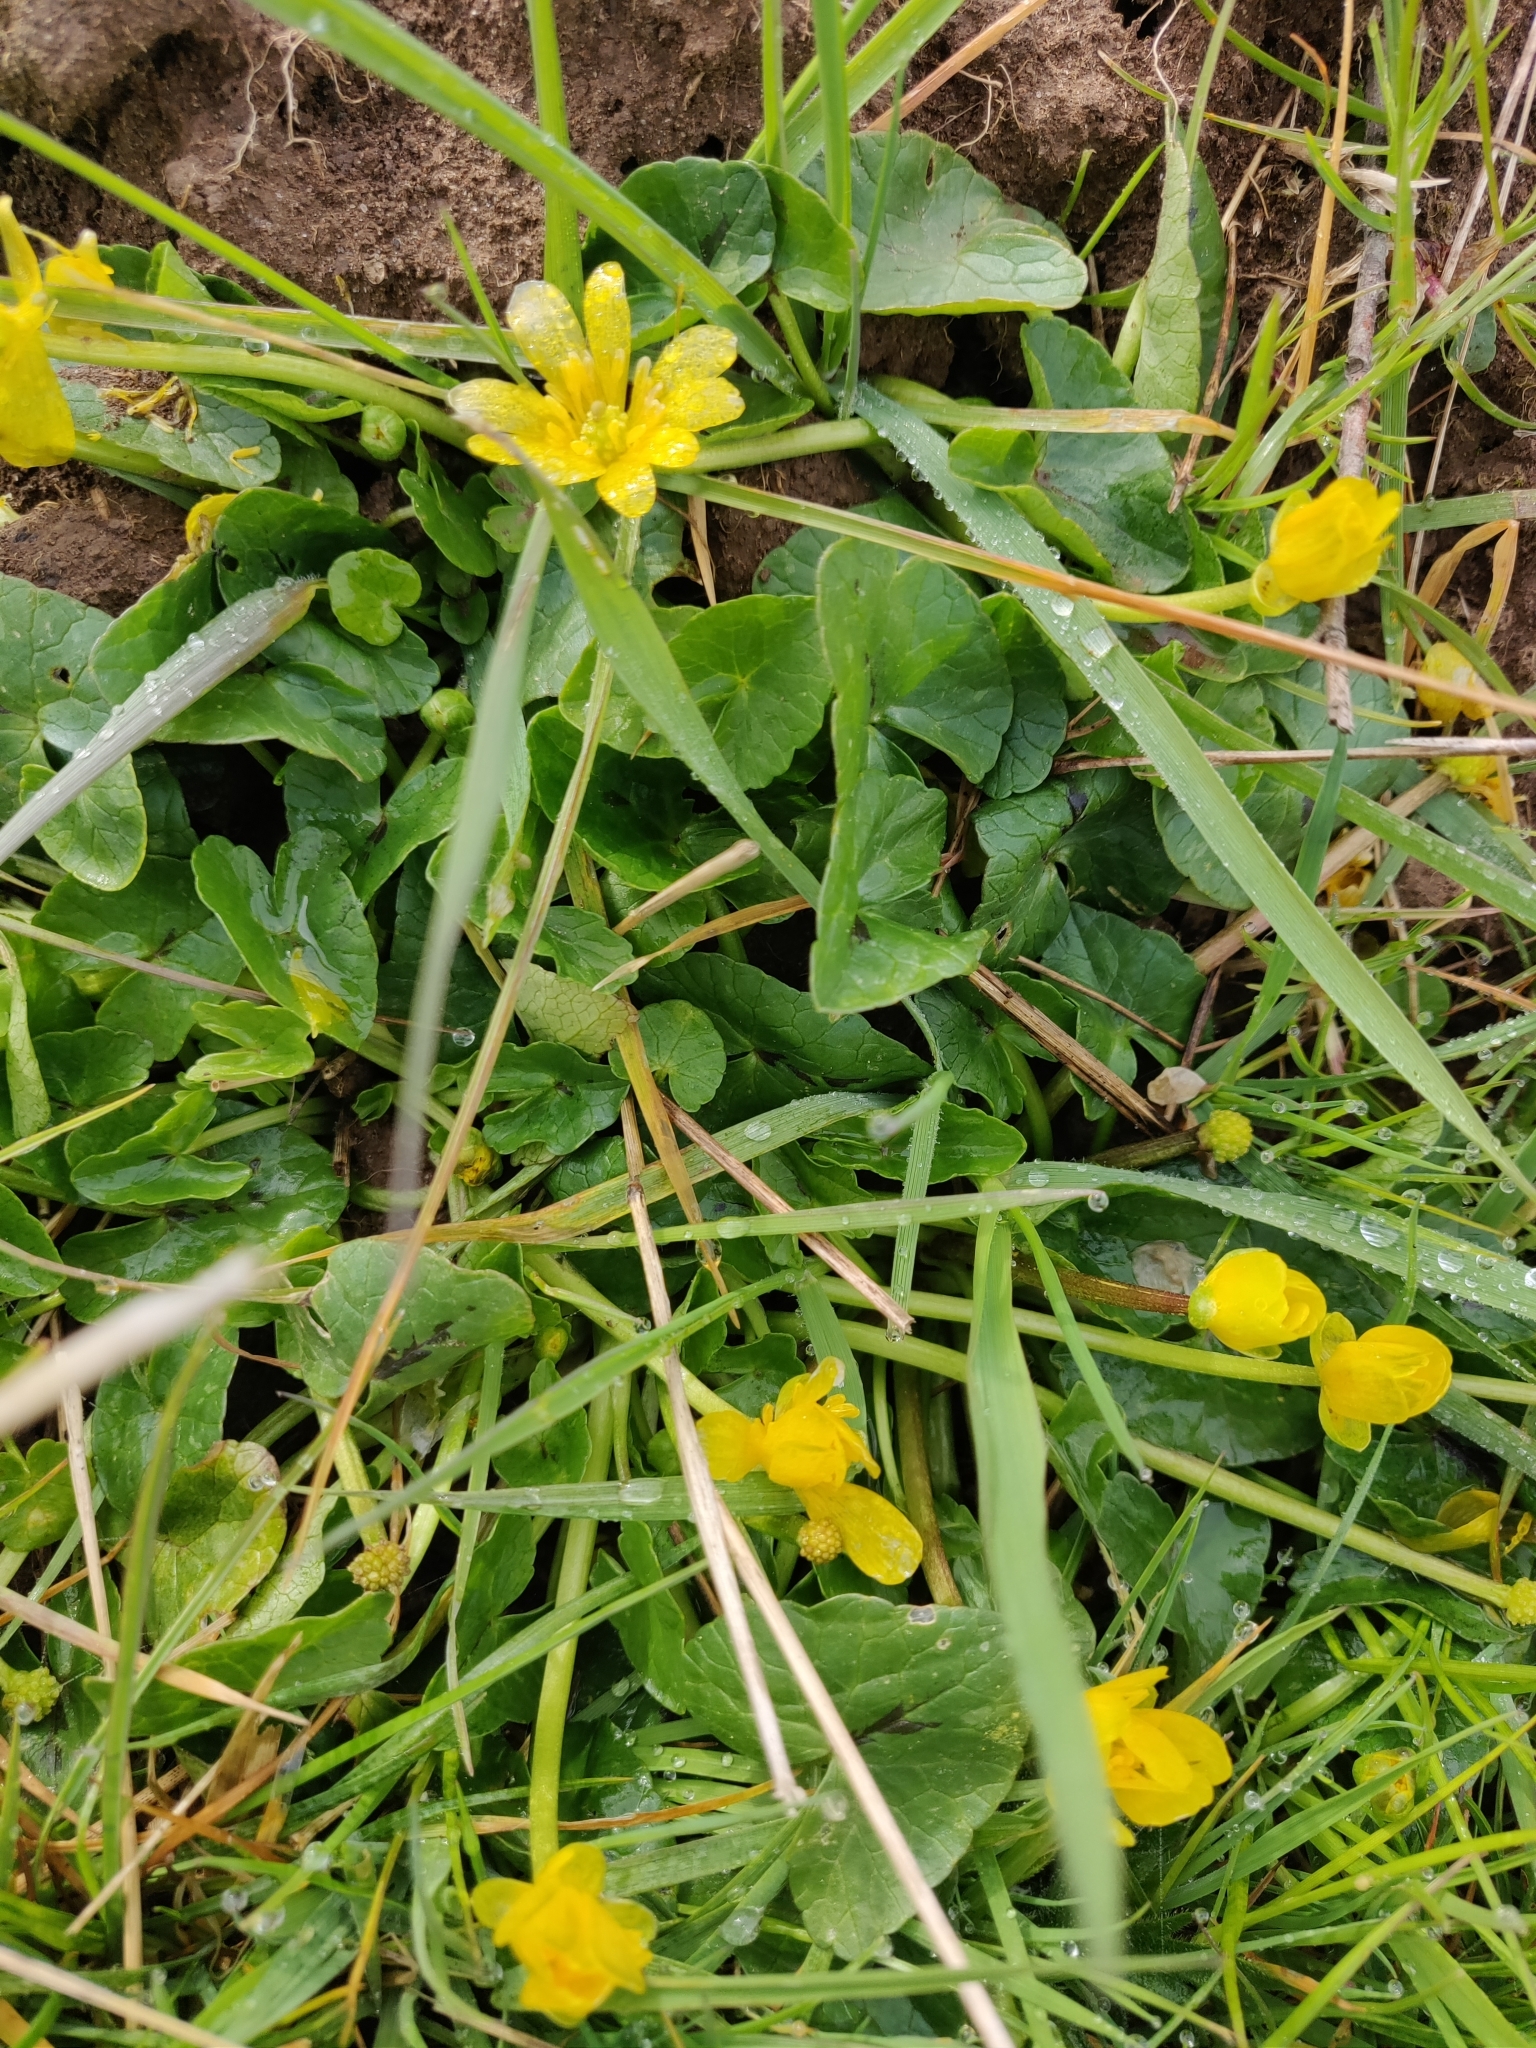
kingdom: Plantae
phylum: Tracheophyta
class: Magnoliopsida
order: Ranunculales
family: Ranunculaceae
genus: Ficaria
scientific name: Ficaria verna
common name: Lesser celandine
